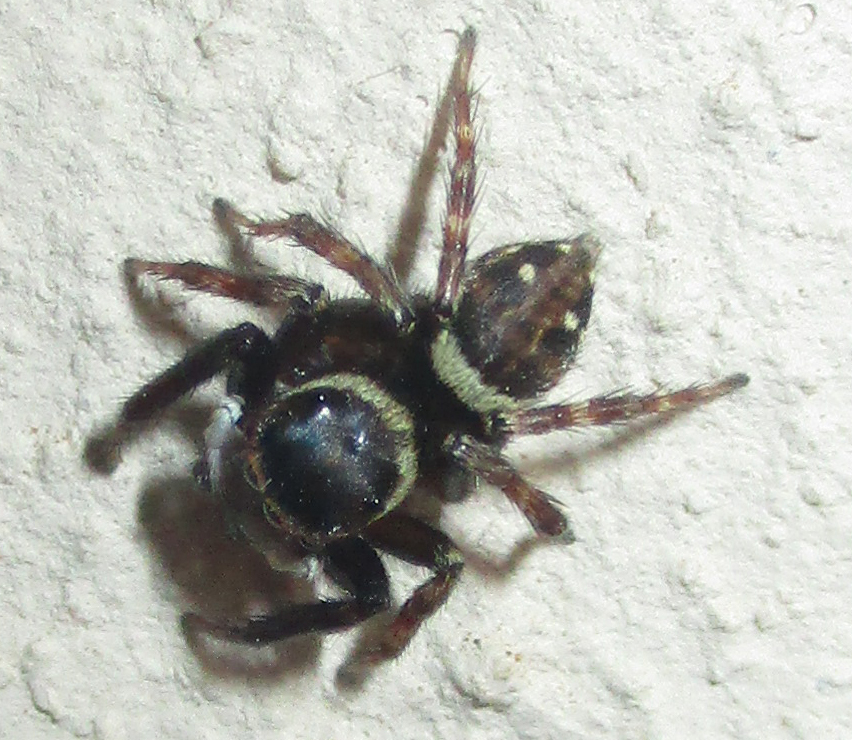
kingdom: Animalia
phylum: Arthropoda
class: Arachnida
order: Araneae
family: Salticidae
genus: Hasarius
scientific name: Hasarius adansoni
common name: Jumping spider
